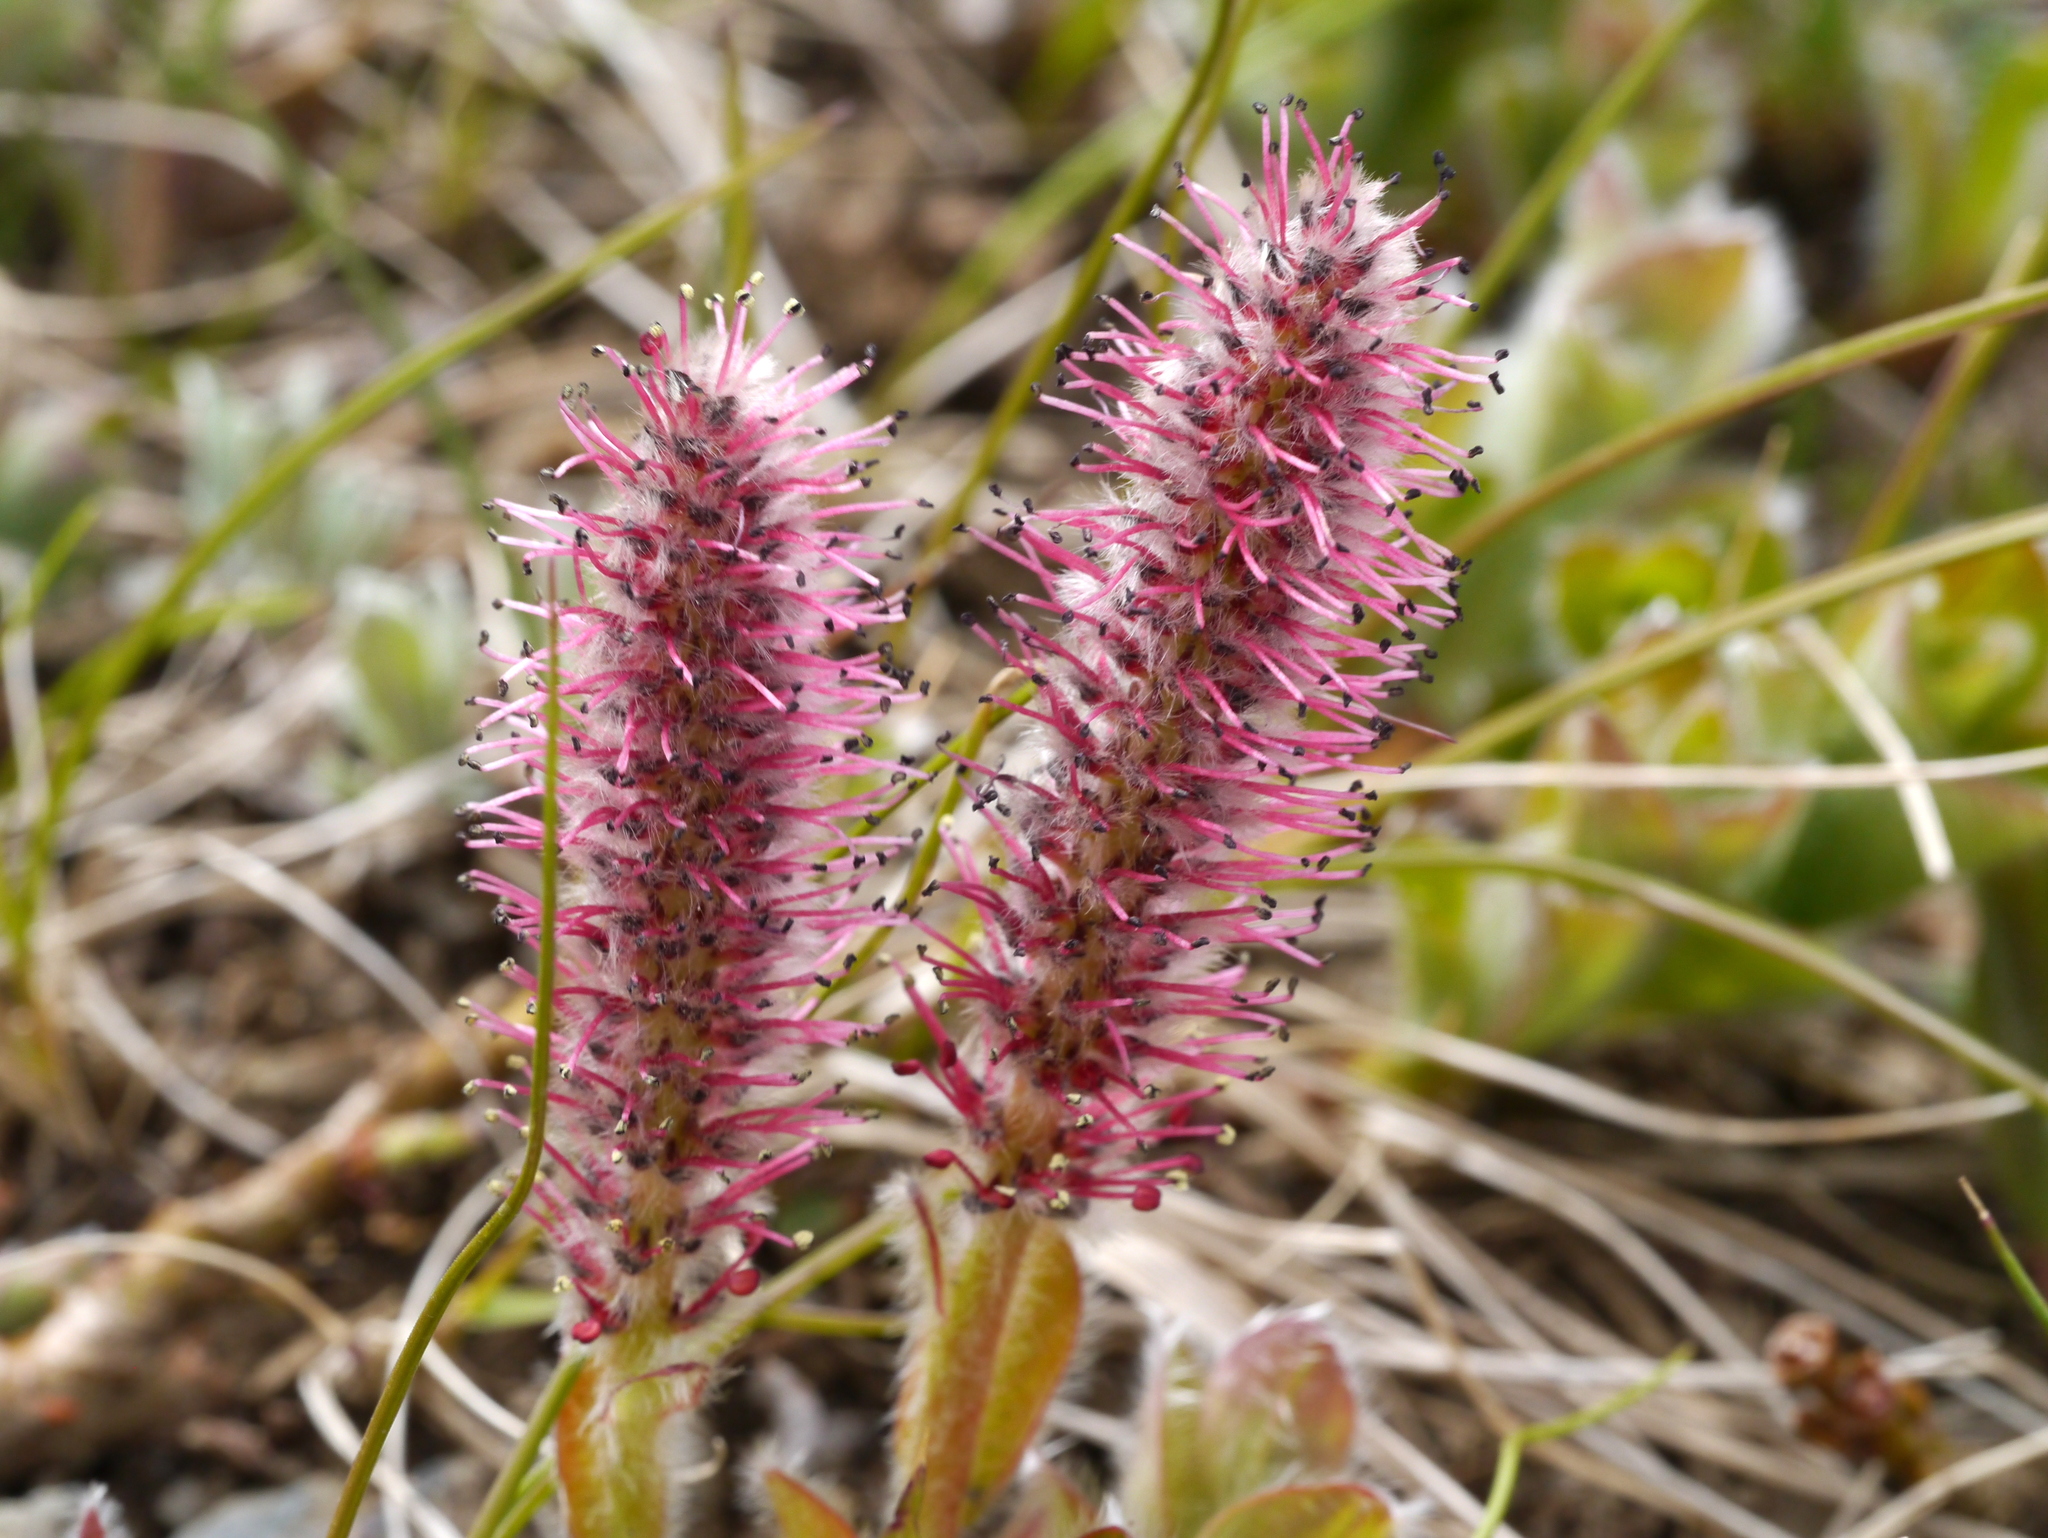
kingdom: Plantae
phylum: Tracheophyta
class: Magnoliopsida
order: Malpighiales
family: Salicaceae
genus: Salix
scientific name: Salix arctica
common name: Arctic willow
